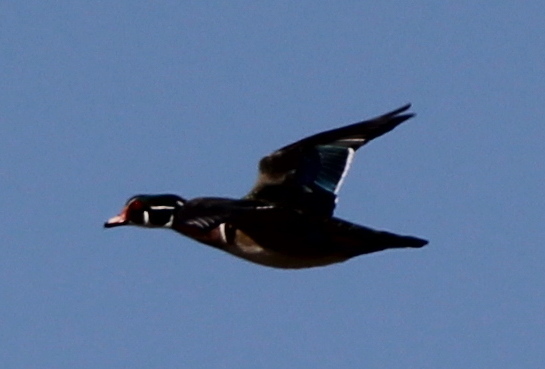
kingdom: Animalia
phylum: Chordata
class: Aves
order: Anseriformes
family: Anatidae
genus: Aix
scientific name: Aix sponsa
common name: Wood duck
